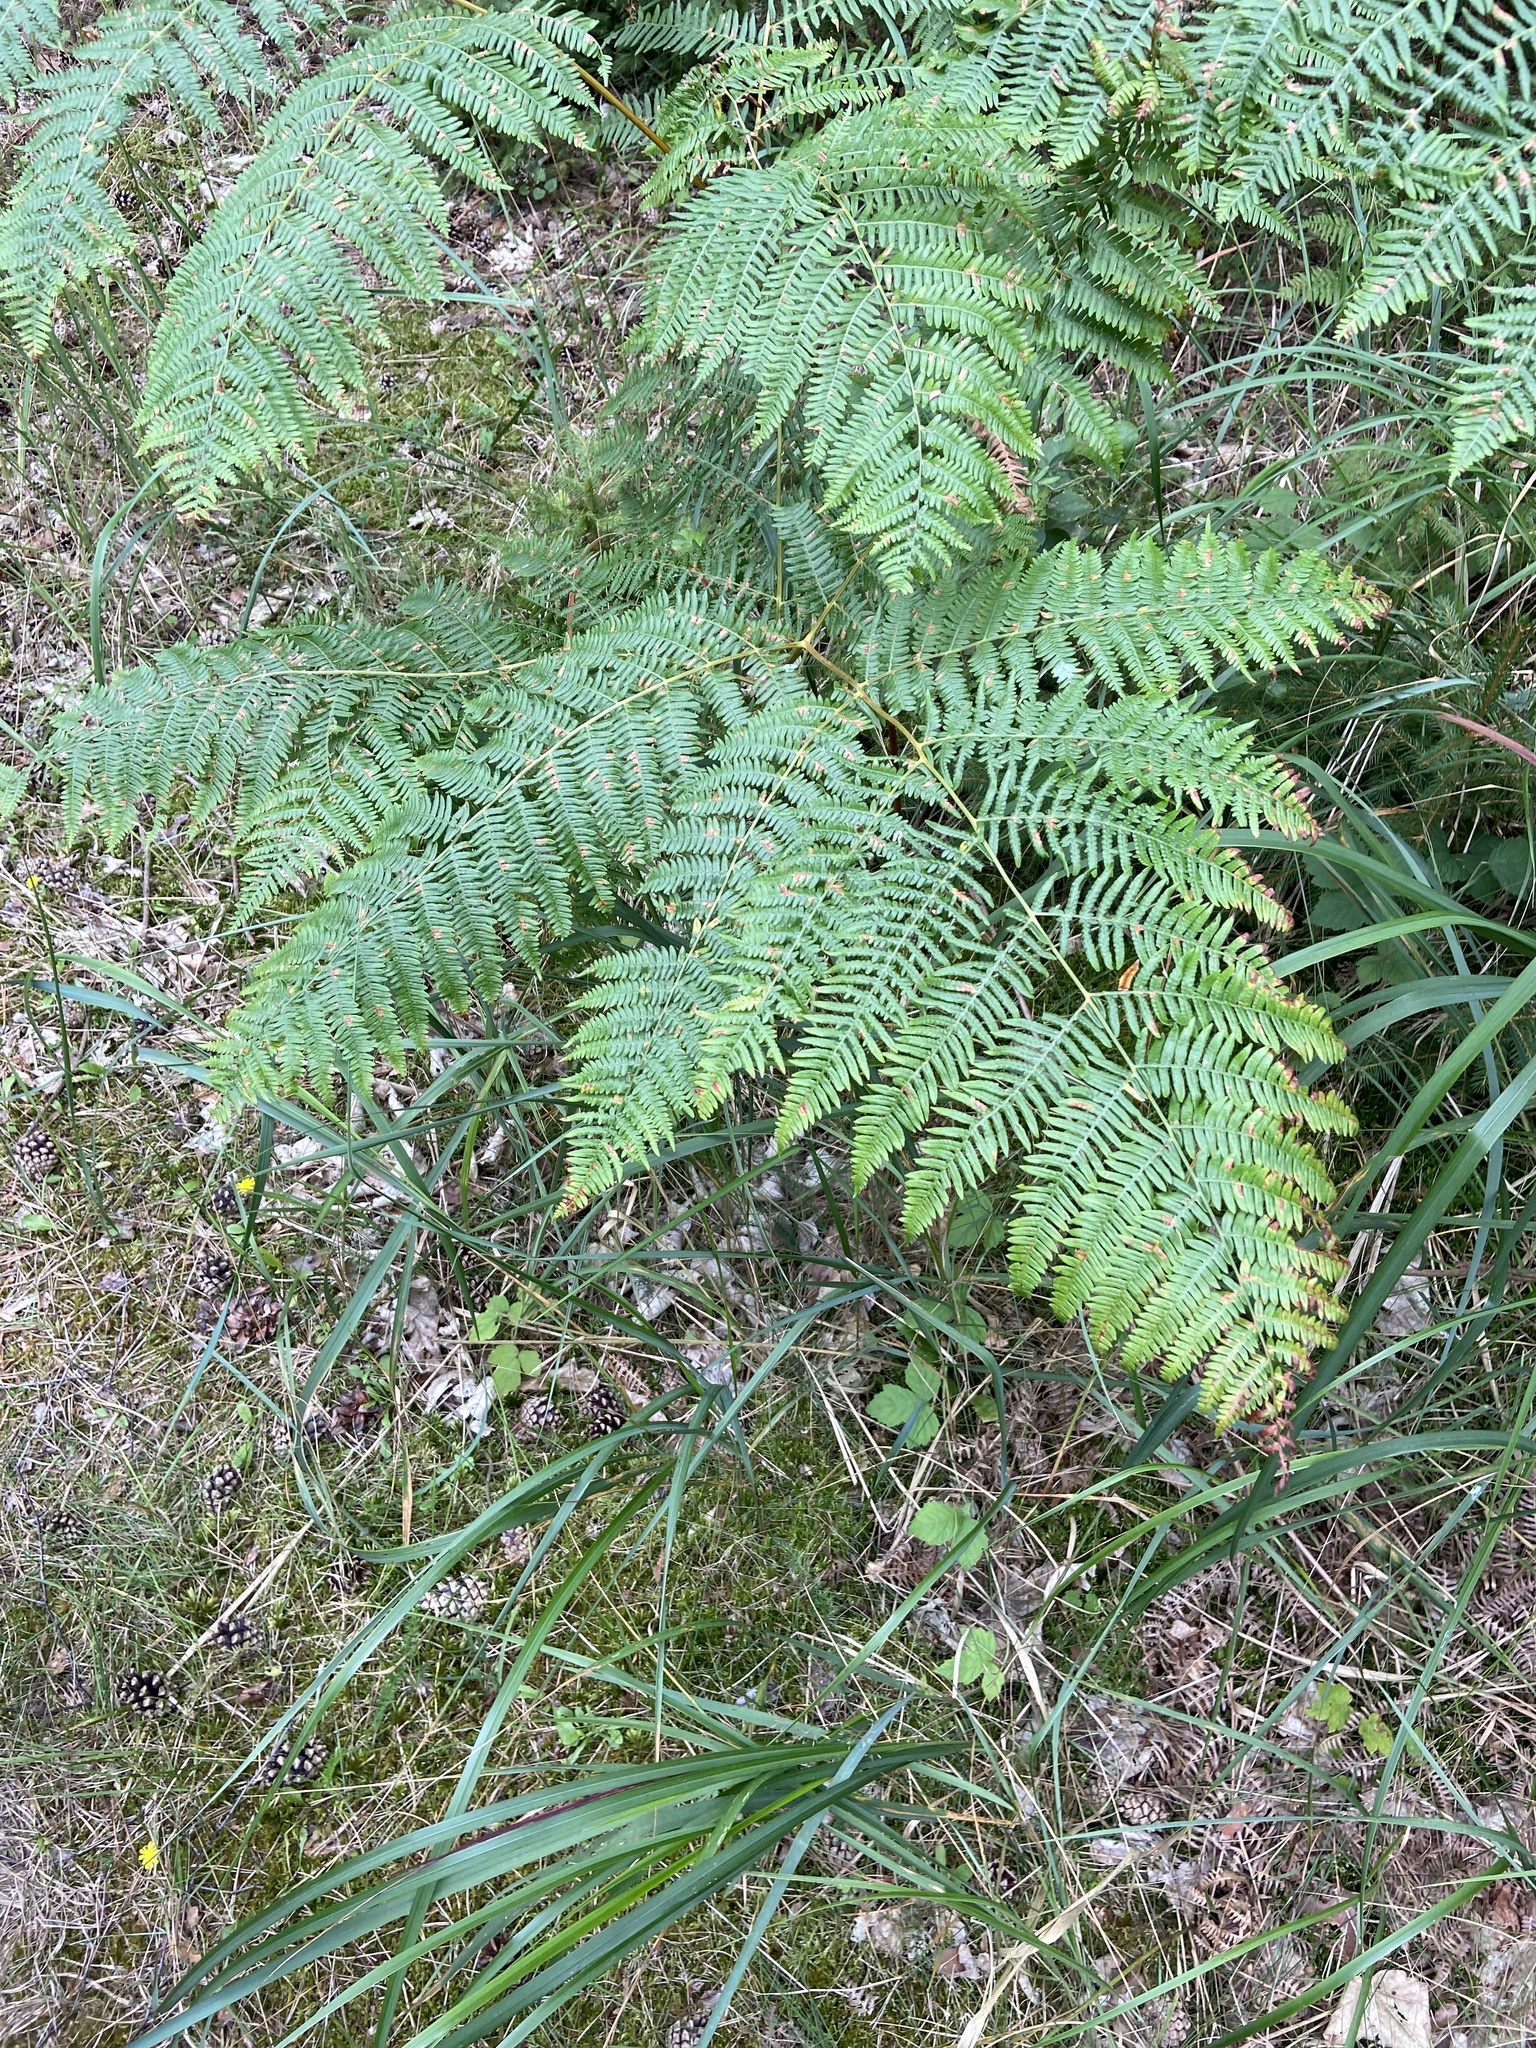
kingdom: Plantae
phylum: Tracheophyta
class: Polypodiopsida
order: Polypodiales
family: Dennstaedtiaceae
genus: Pteridium
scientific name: Pteridium aquilinum
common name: Bracken
